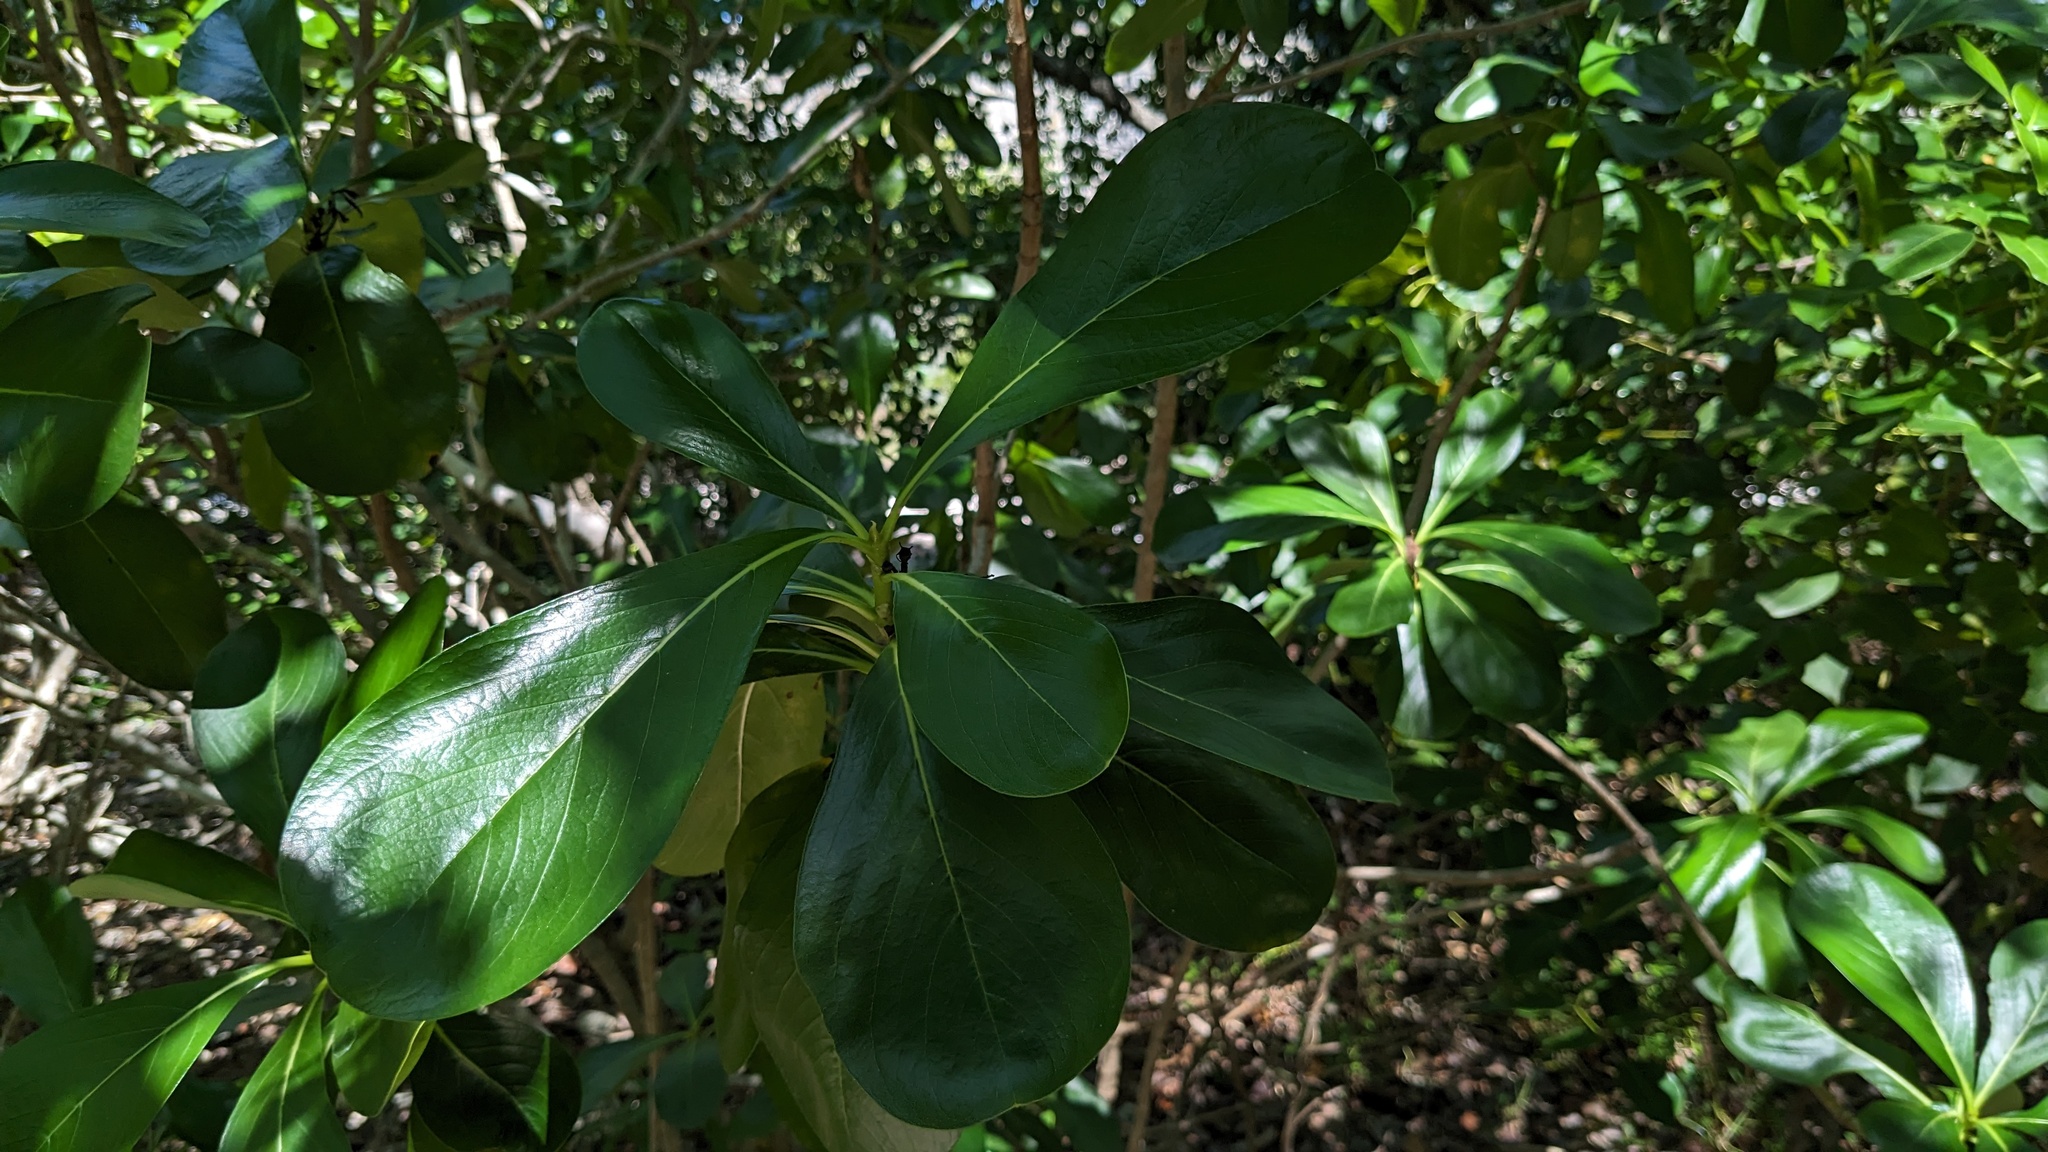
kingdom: Plantae
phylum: Tracheophyta
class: Magnoliopsida
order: Gentianales
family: Rubiaceae
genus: Casasia
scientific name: Casasia clusiifolia
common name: Seven-year apple
